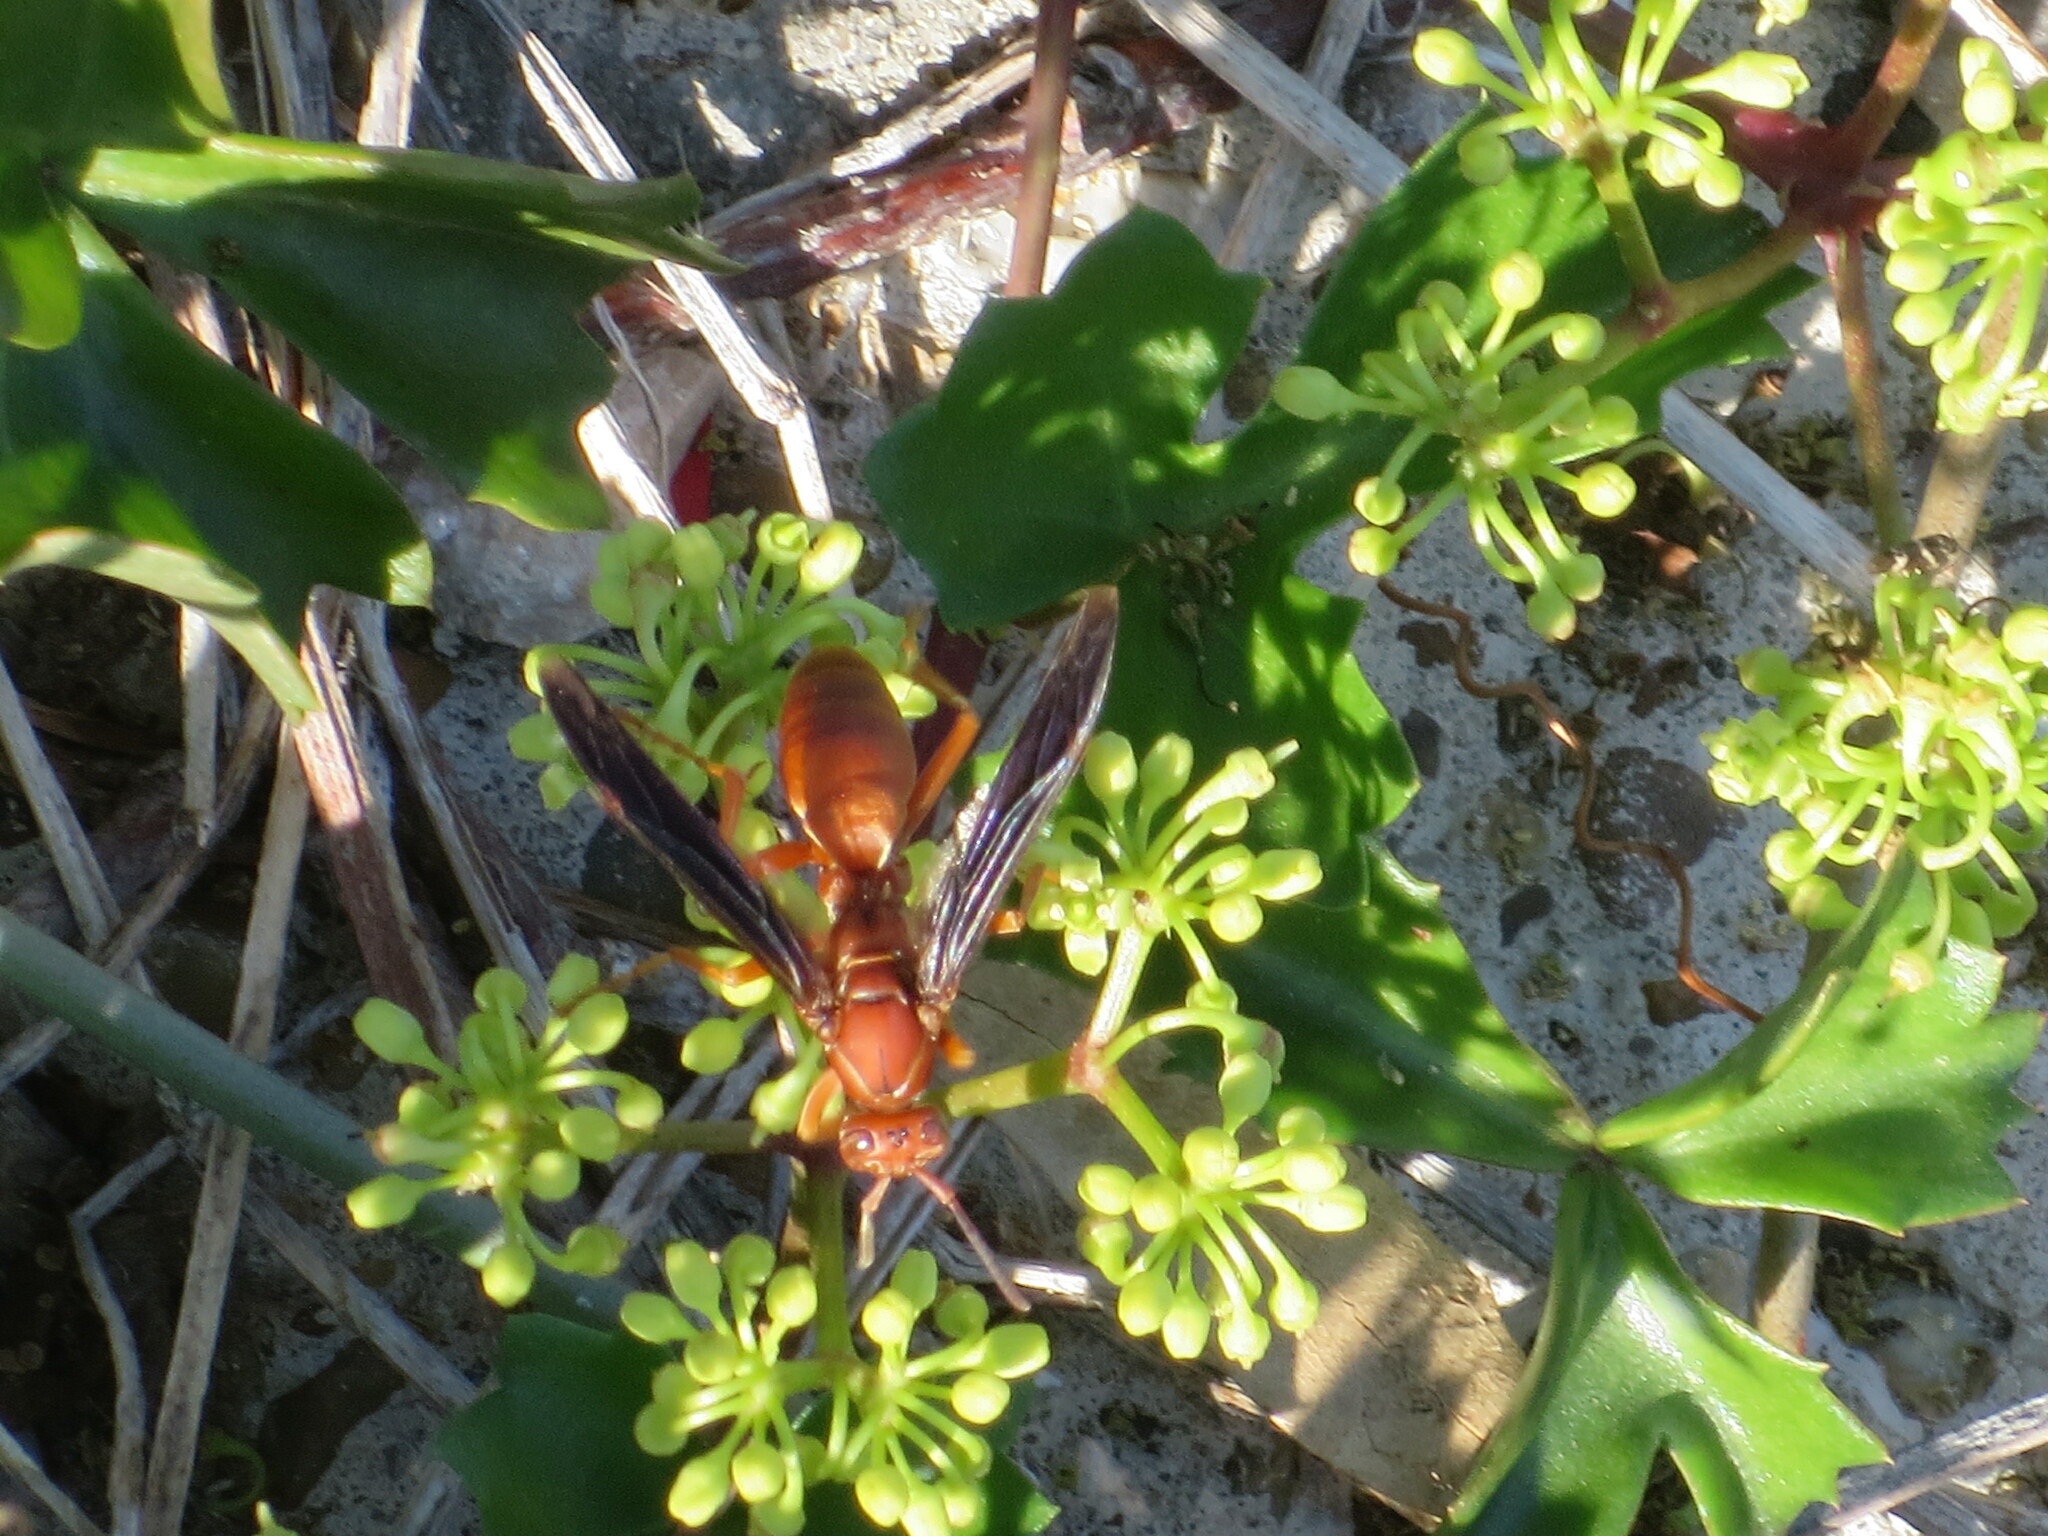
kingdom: Animalia
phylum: Arthropoda
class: Insecta
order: Hymenoptera
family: Vespidae
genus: Fuscopolistes
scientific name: Fuscopolistes
